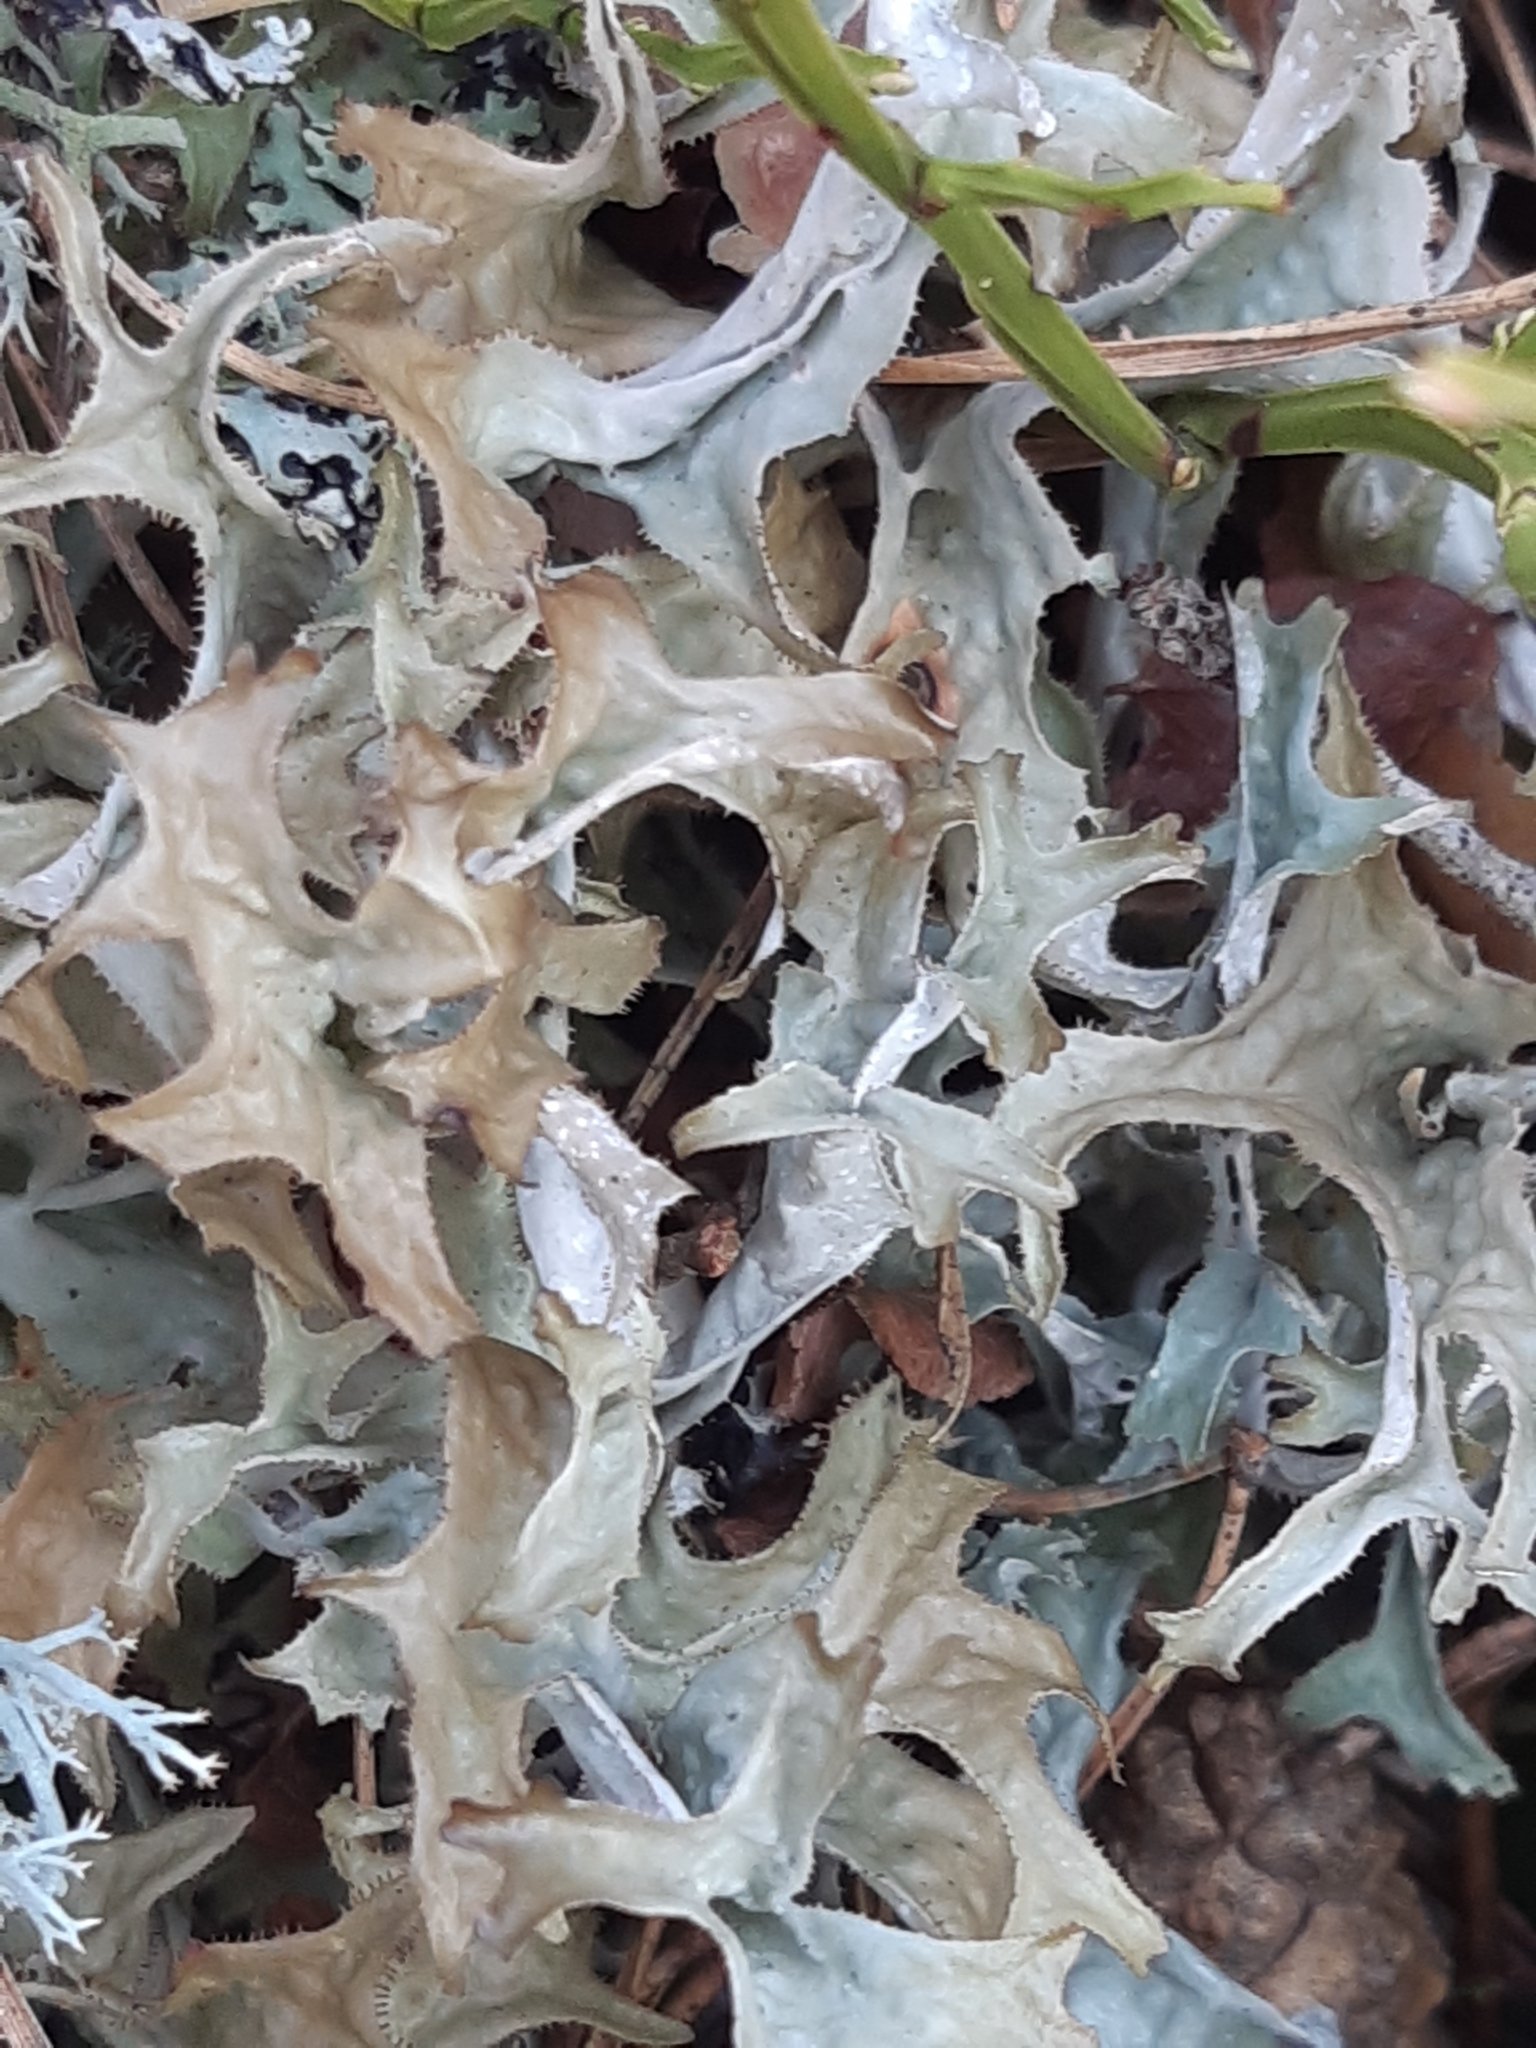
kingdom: Fungi
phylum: Ascomycota
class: Lecanoromycetes
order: Lecanorales
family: Parmeliaceae
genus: Cetraria
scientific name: Cetraria islandica
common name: Iceland lichen
